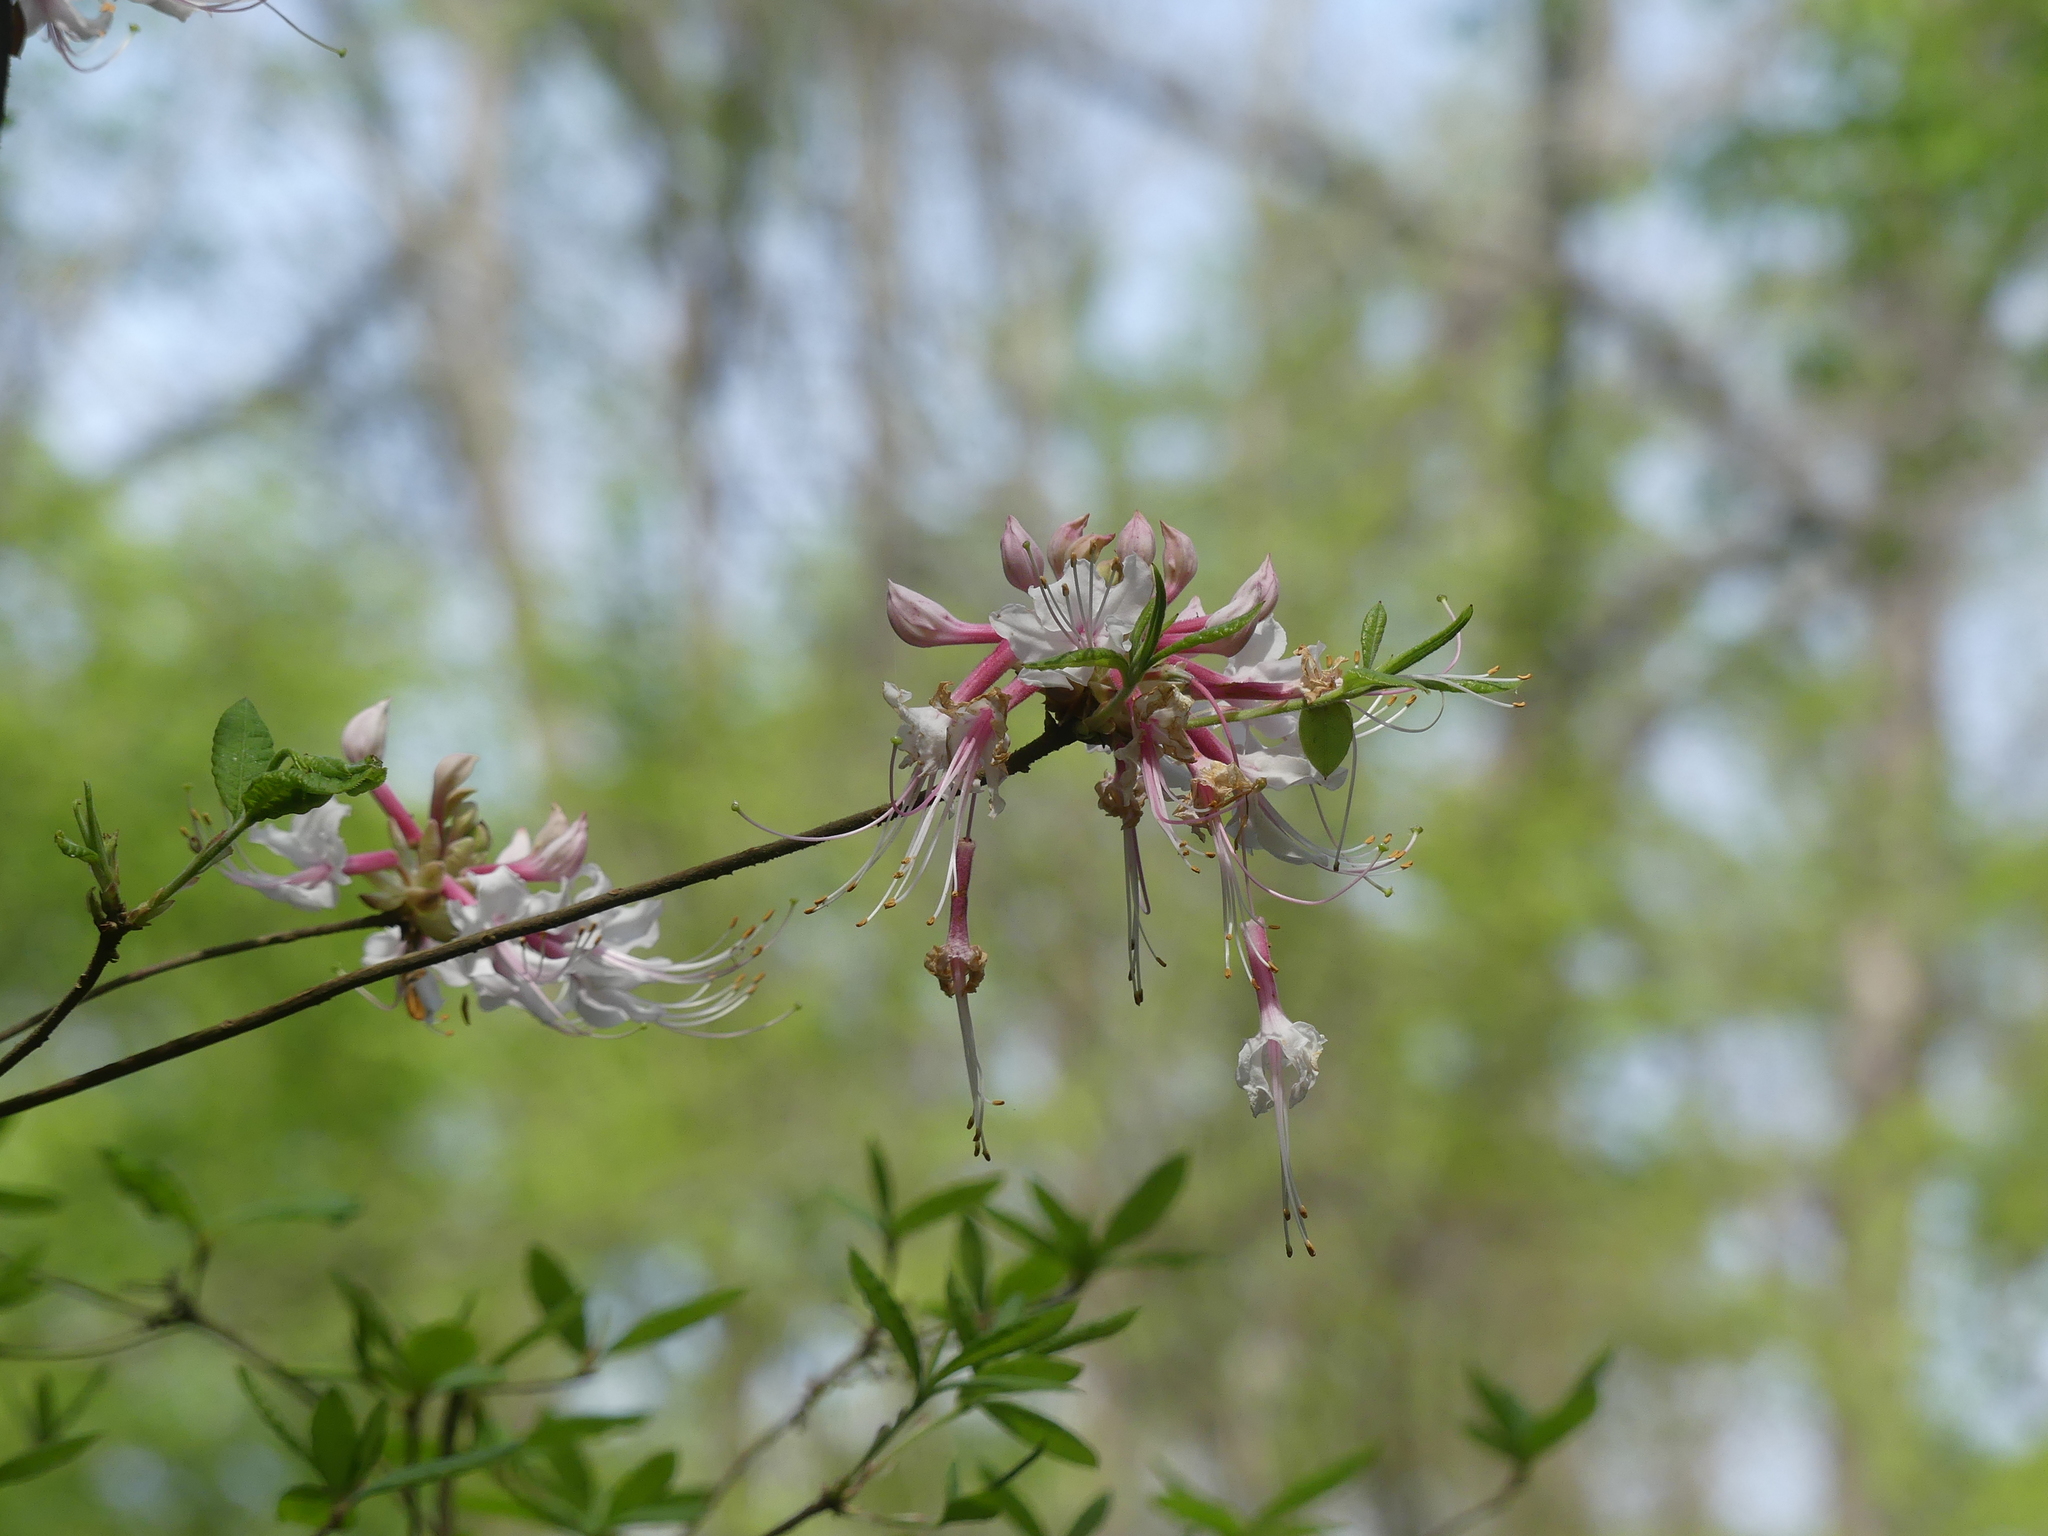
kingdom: Plantae
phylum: Tracheophyta
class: Magnoliopsida
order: Ericales
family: Ericaceae
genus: Rhododendron
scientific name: Rhododendron canescens
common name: Mountain azalea
